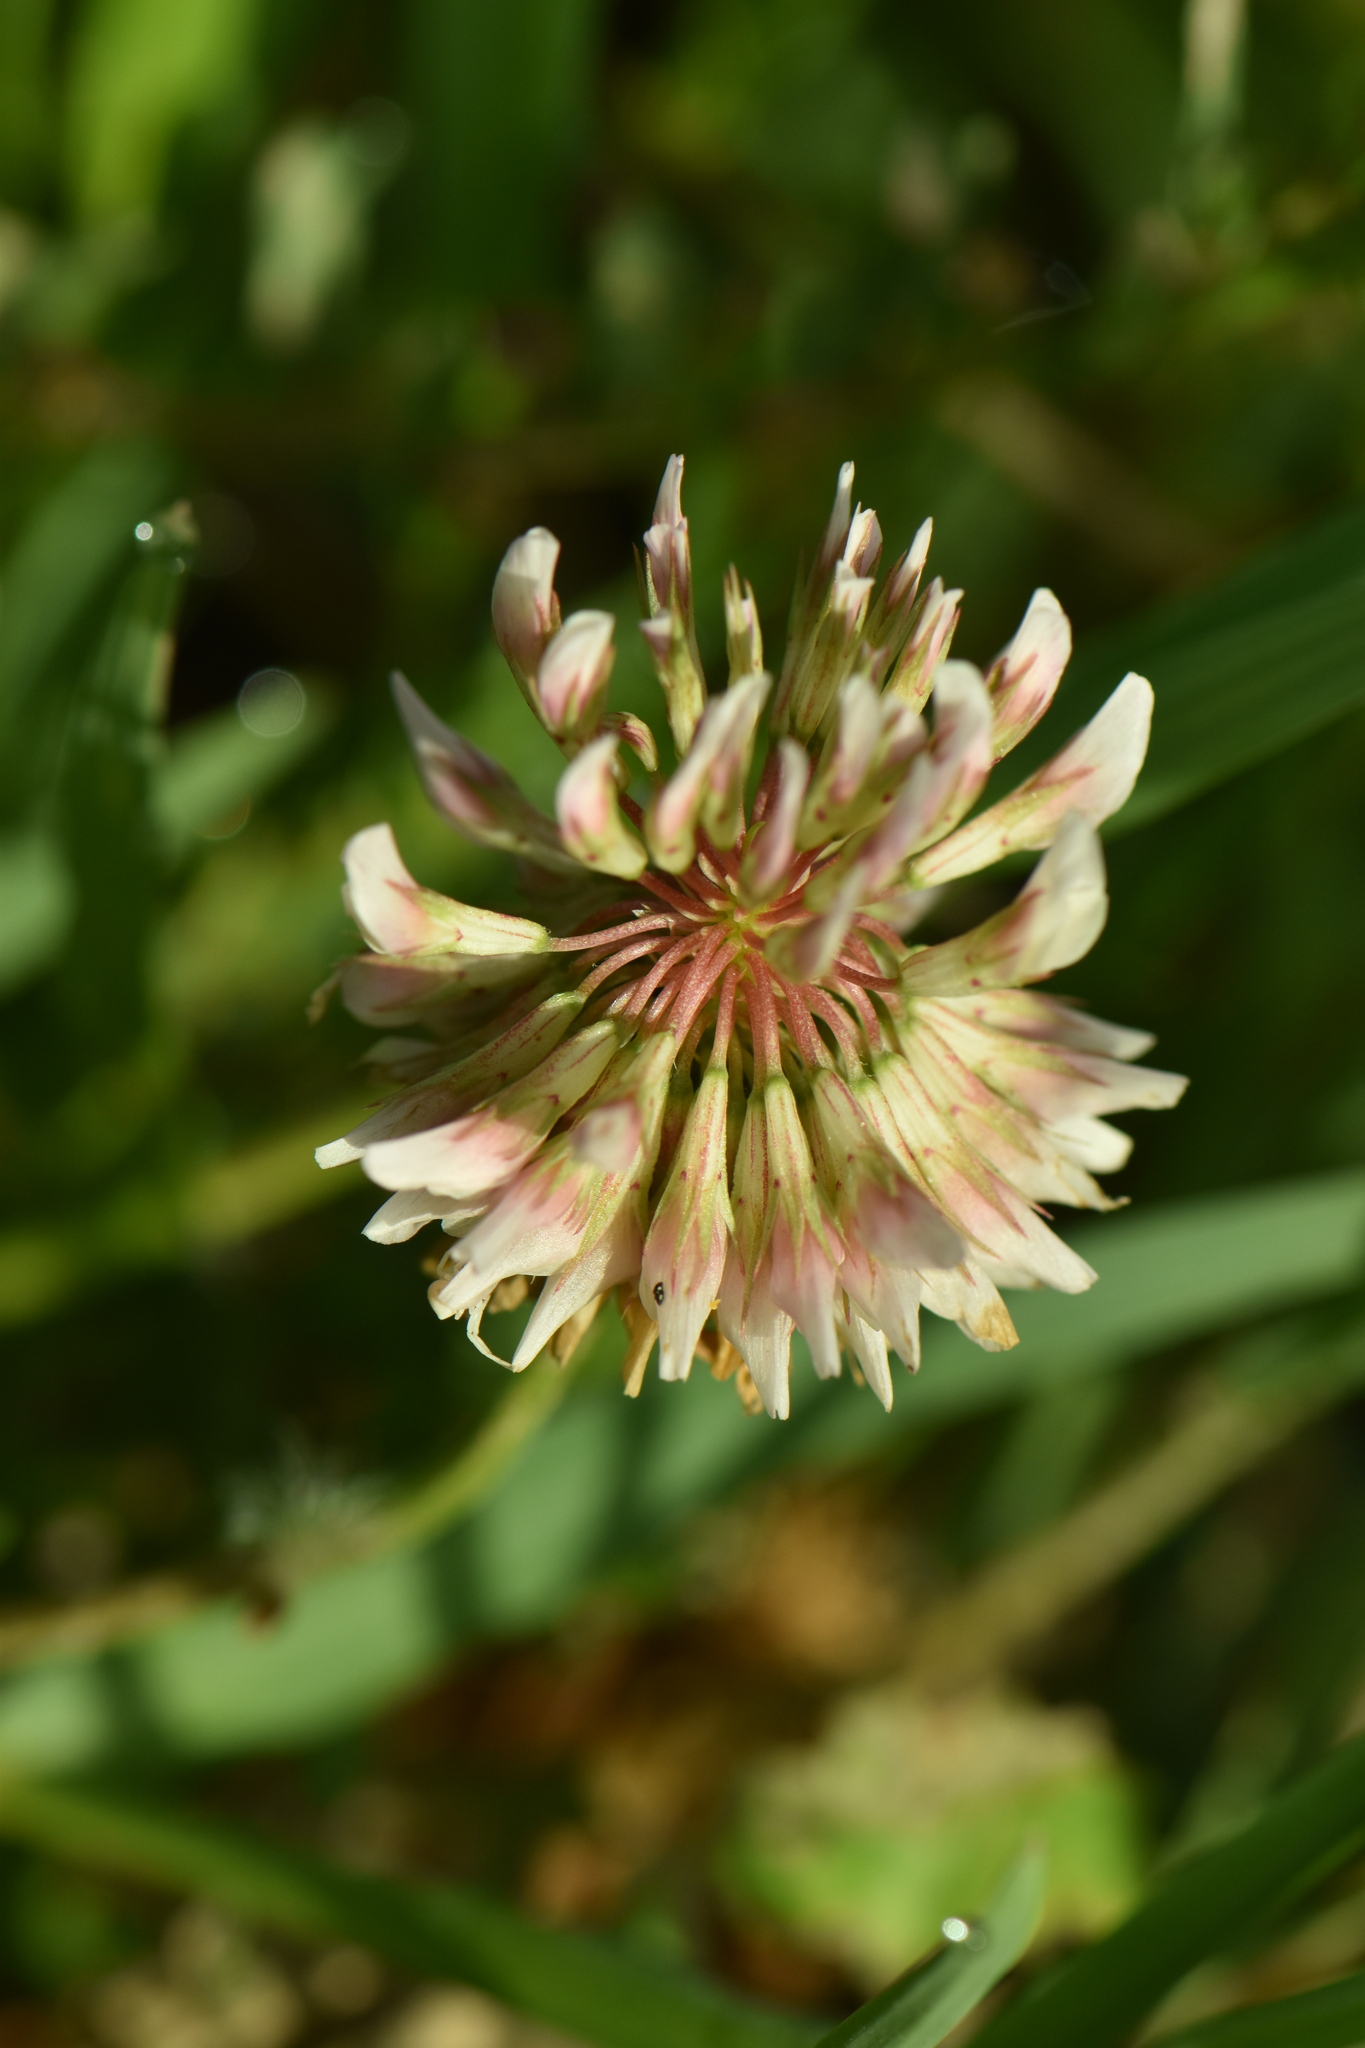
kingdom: Plantae
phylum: Tracheophyta
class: Magnoliopsida
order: Fabales
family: Fabaceae
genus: Trifolium
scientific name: Trifolium repens
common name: White clover
